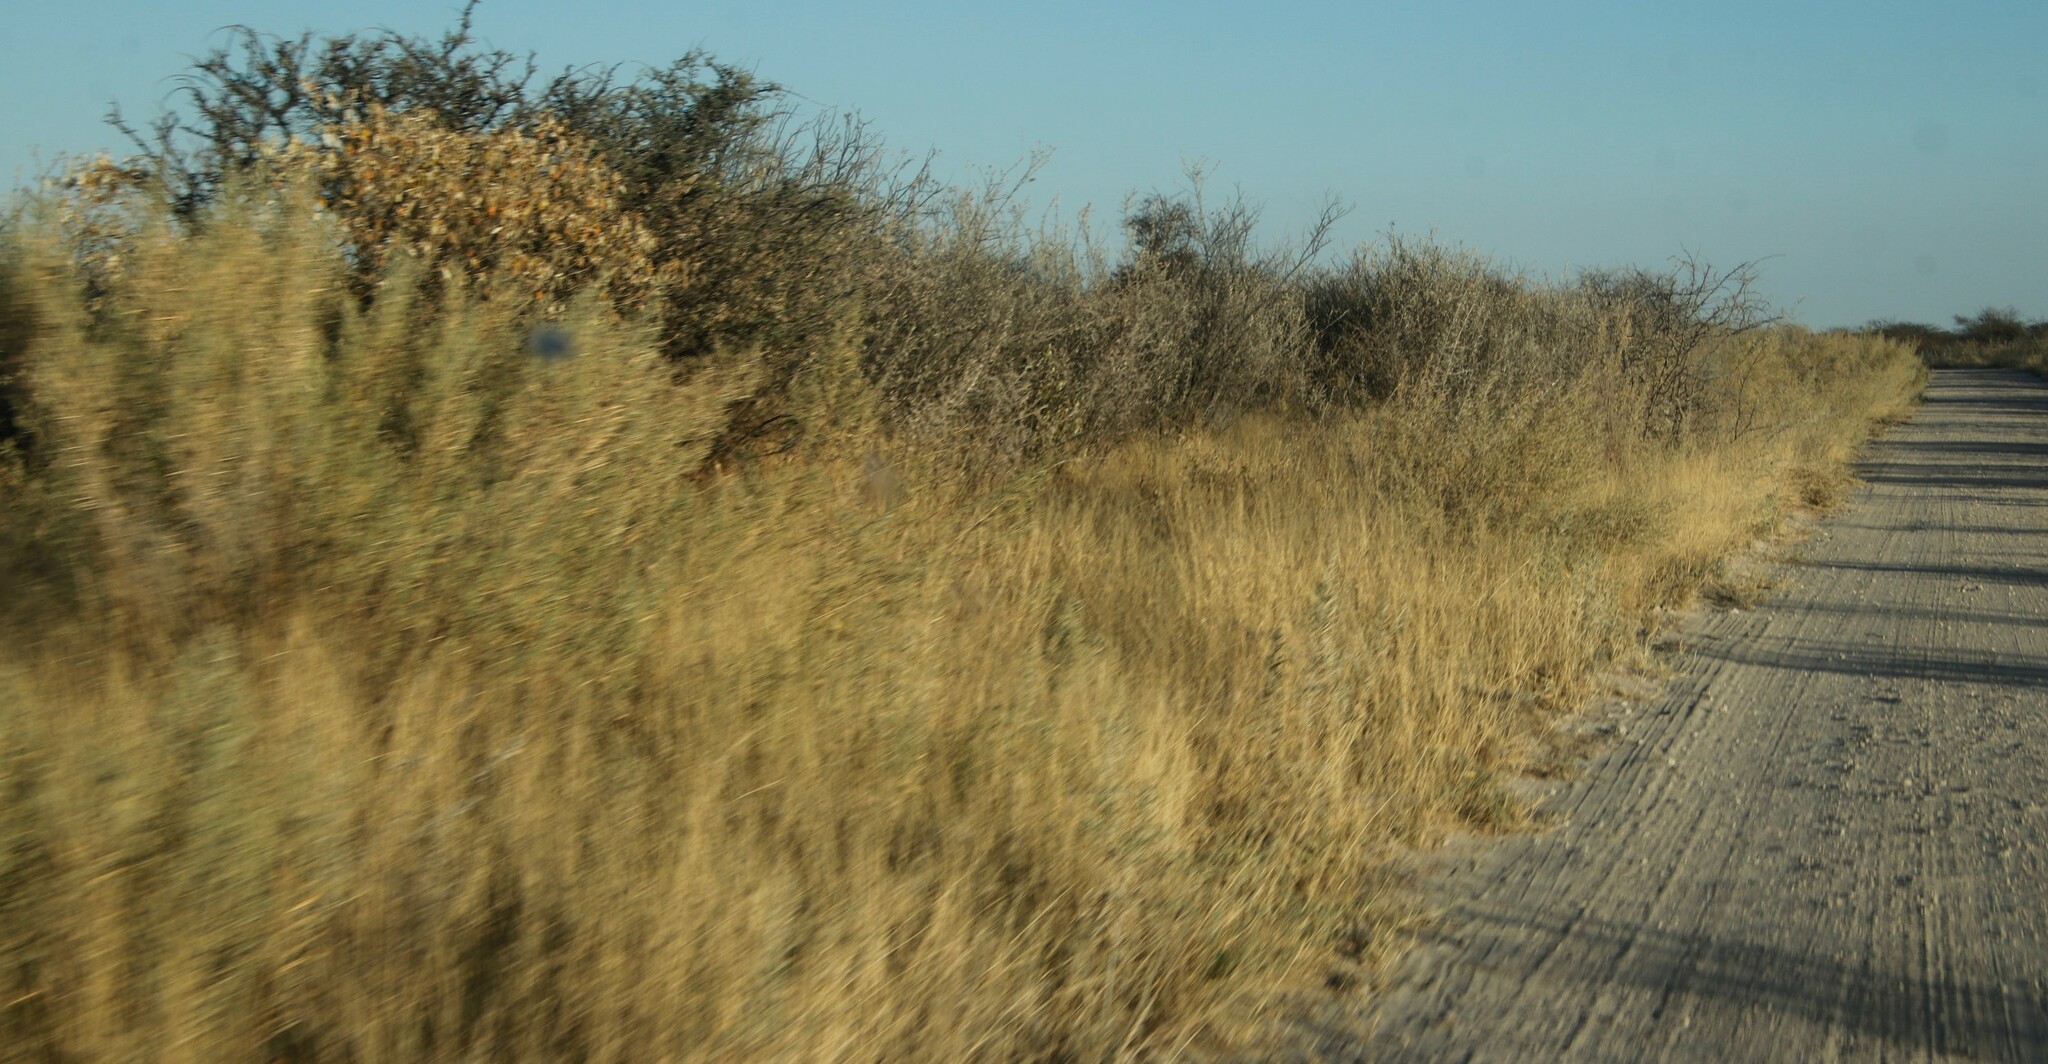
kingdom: Plantae
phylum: Tracheophyta
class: Magnoliopsida
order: Asterales
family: Asteraceae
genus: Pechuel-loeschea
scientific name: Pechuel-loeschea leubnitziae
